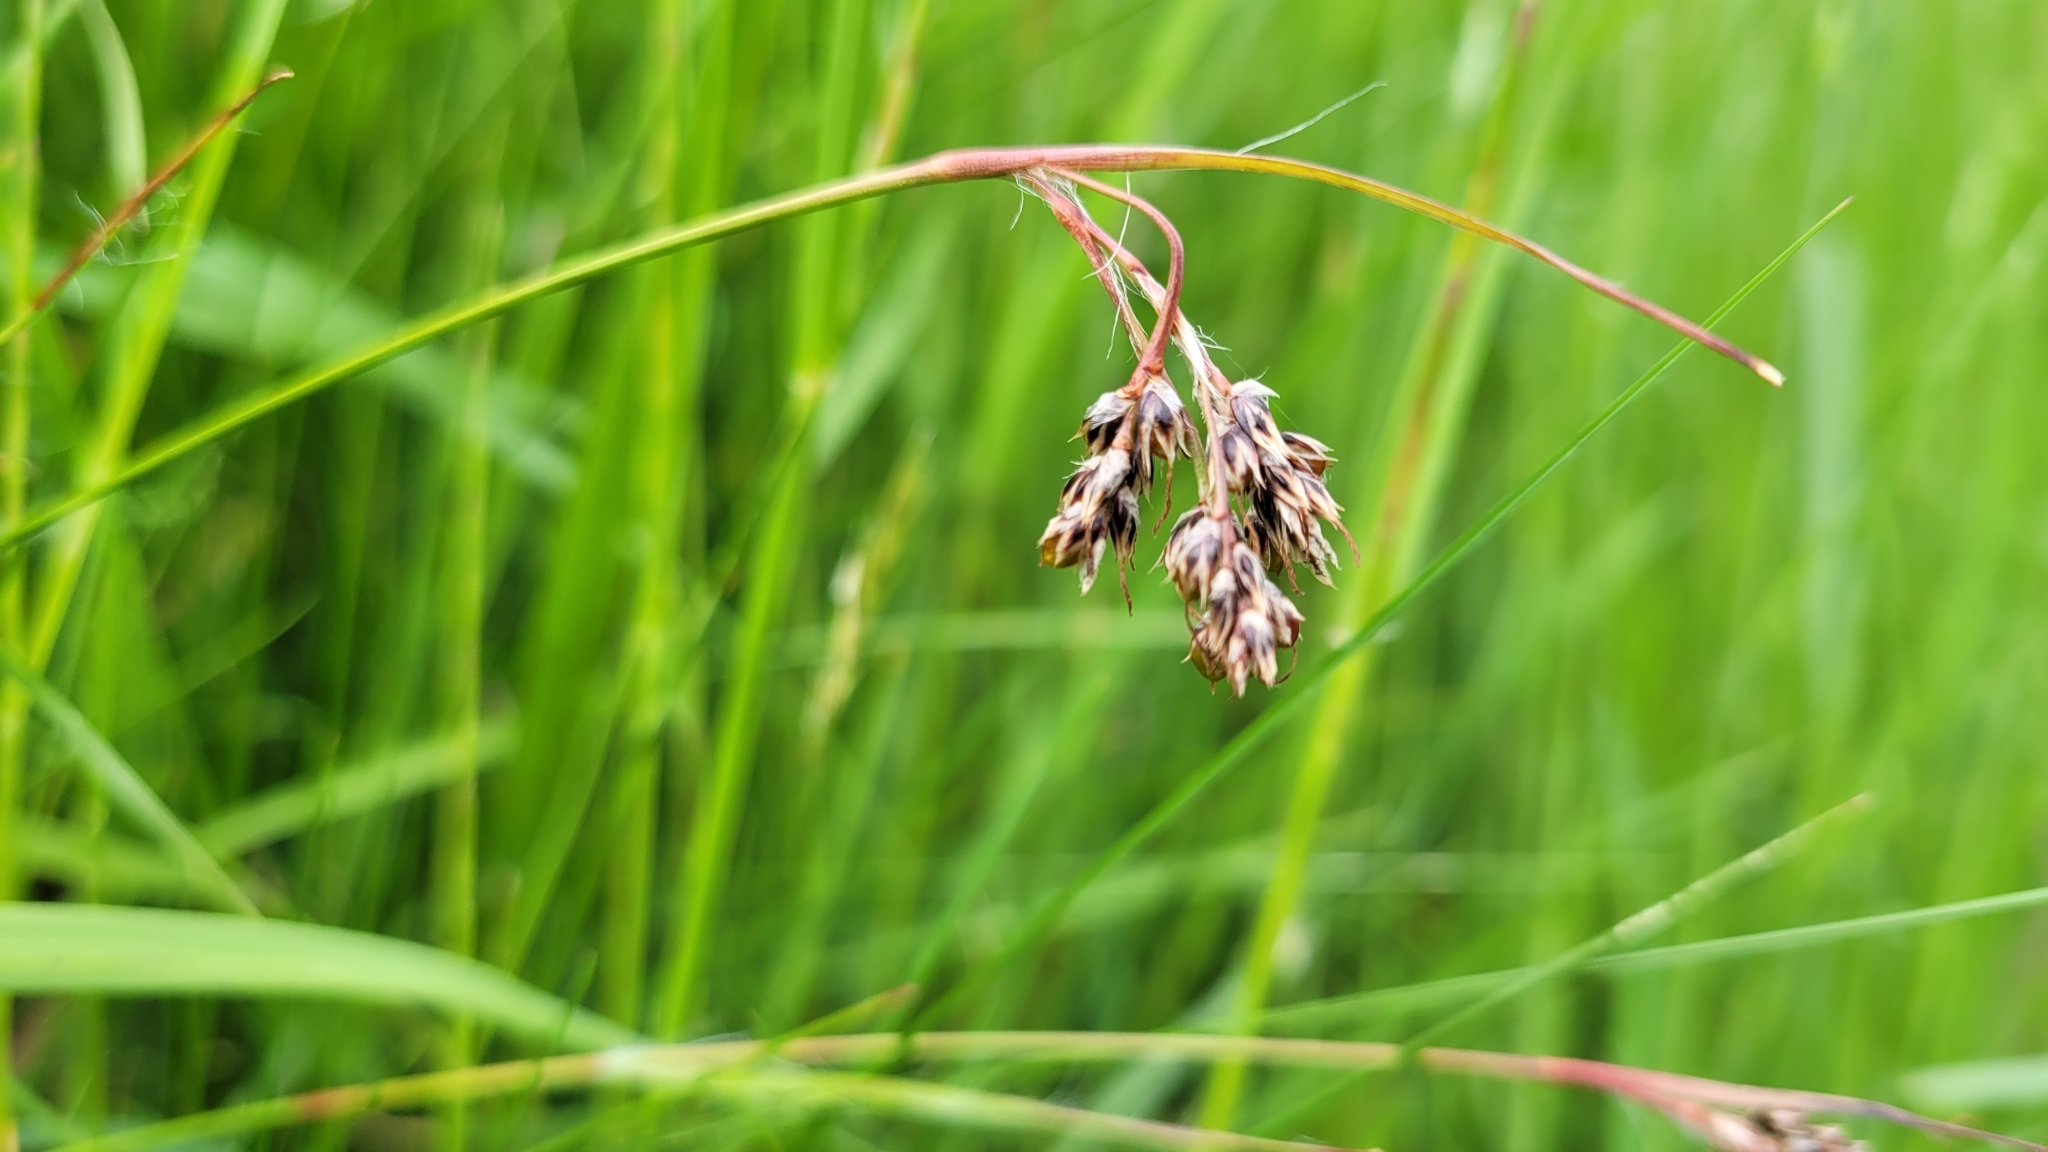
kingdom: Plantae
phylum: Tracheophyta
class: Liliopsida
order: Poales
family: Juncaceae
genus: Luzula
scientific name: Luzula campestris
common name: Field wood-rush
